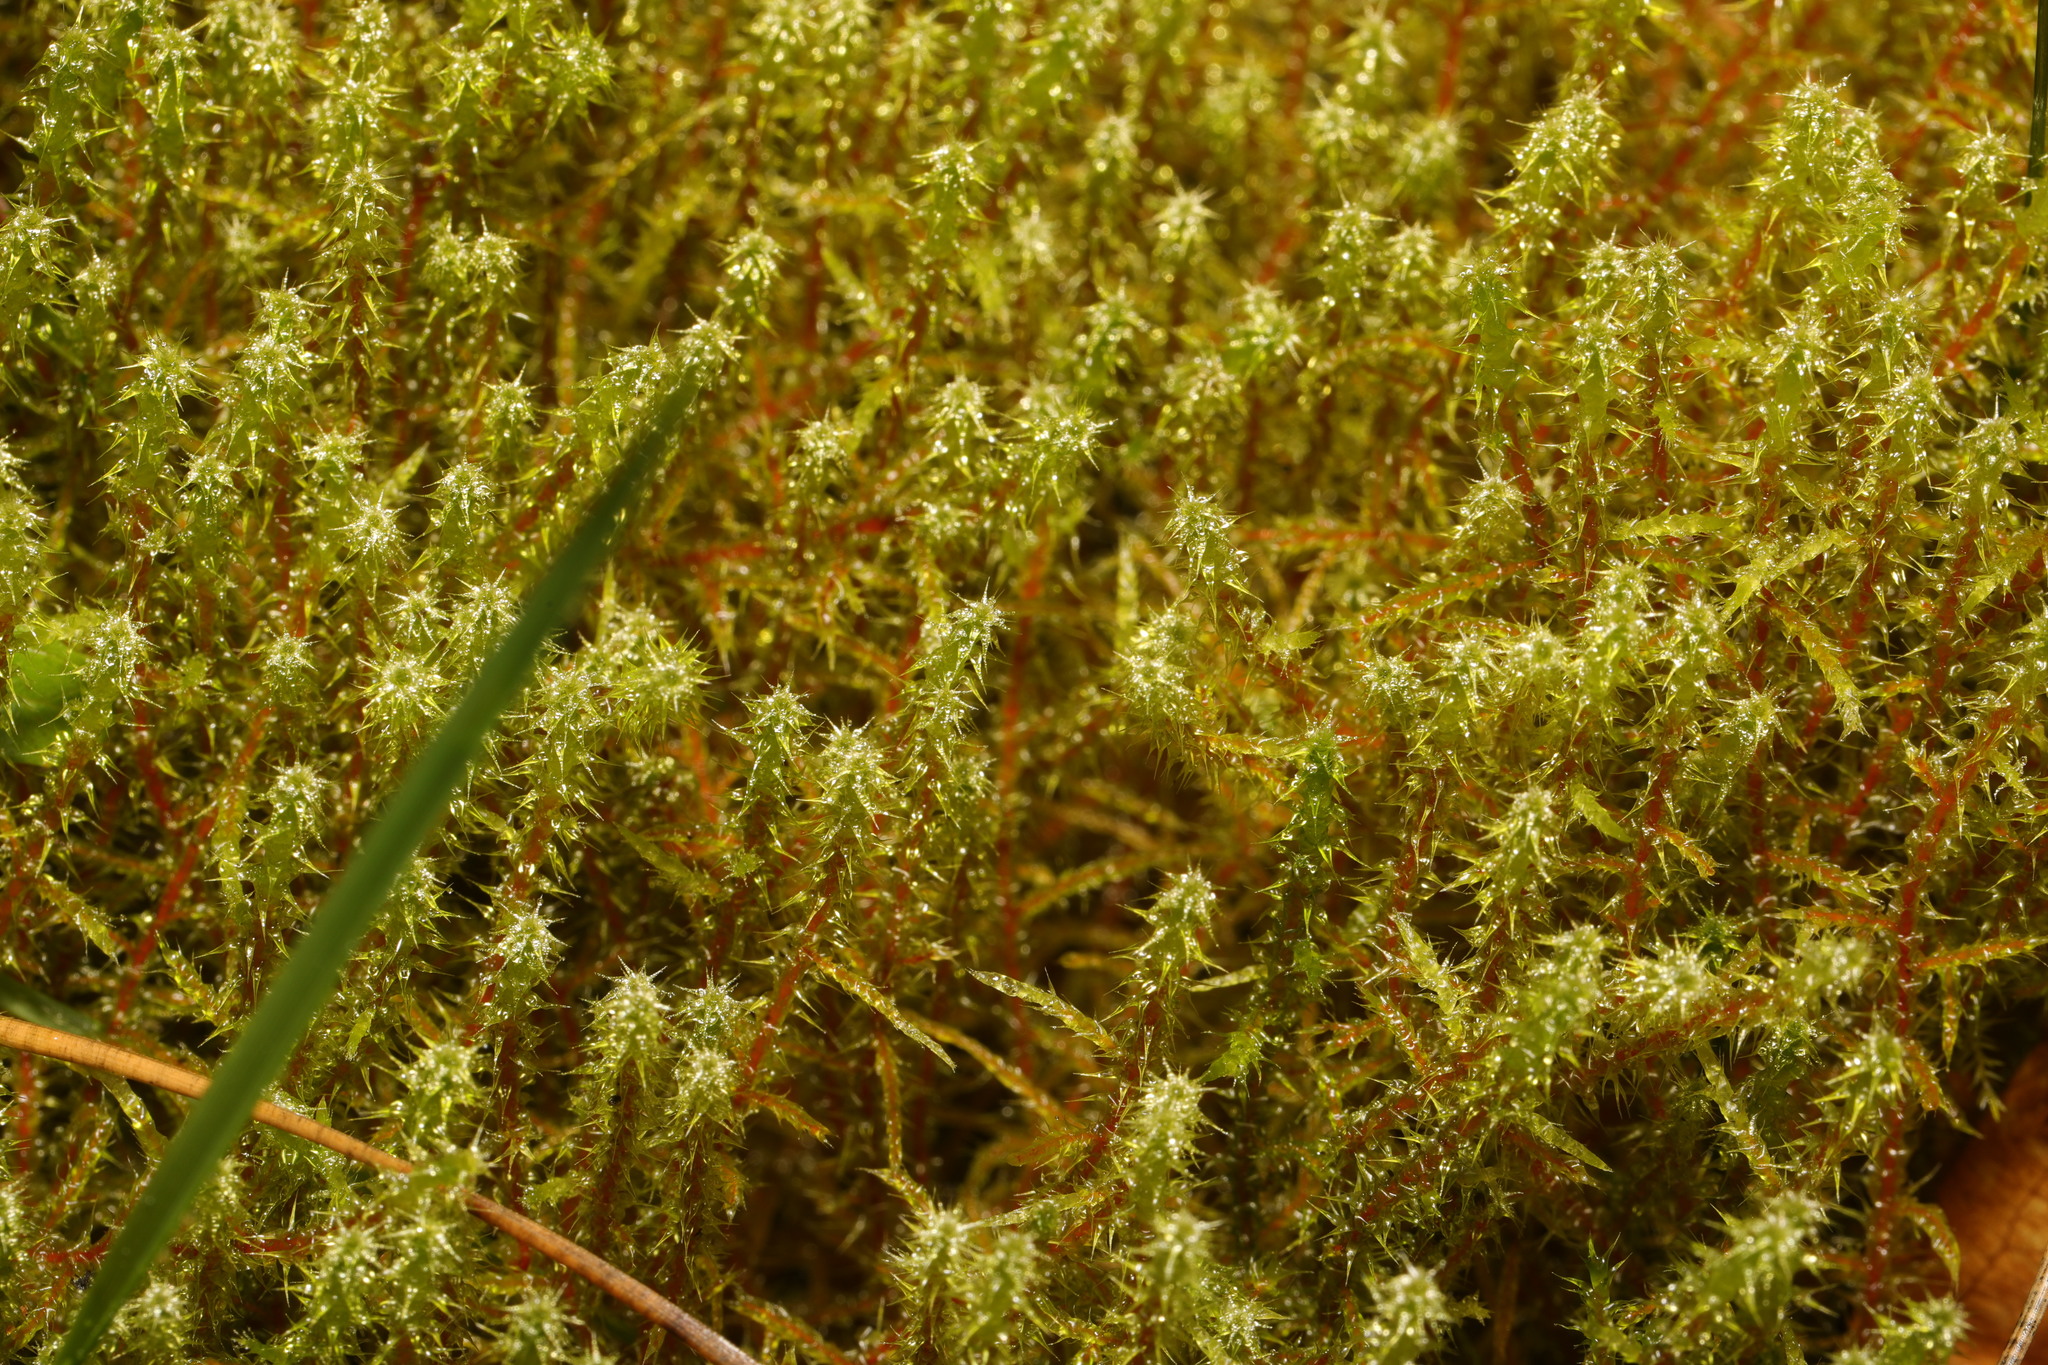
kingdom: Plantae
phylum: Bryophyta
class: Bryopsida
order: Hypnales
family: Hylocomiaceae
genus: Rhytidiadelphus
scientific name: Rhytidiadelphus squarrosus
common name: Springy turf-moss
